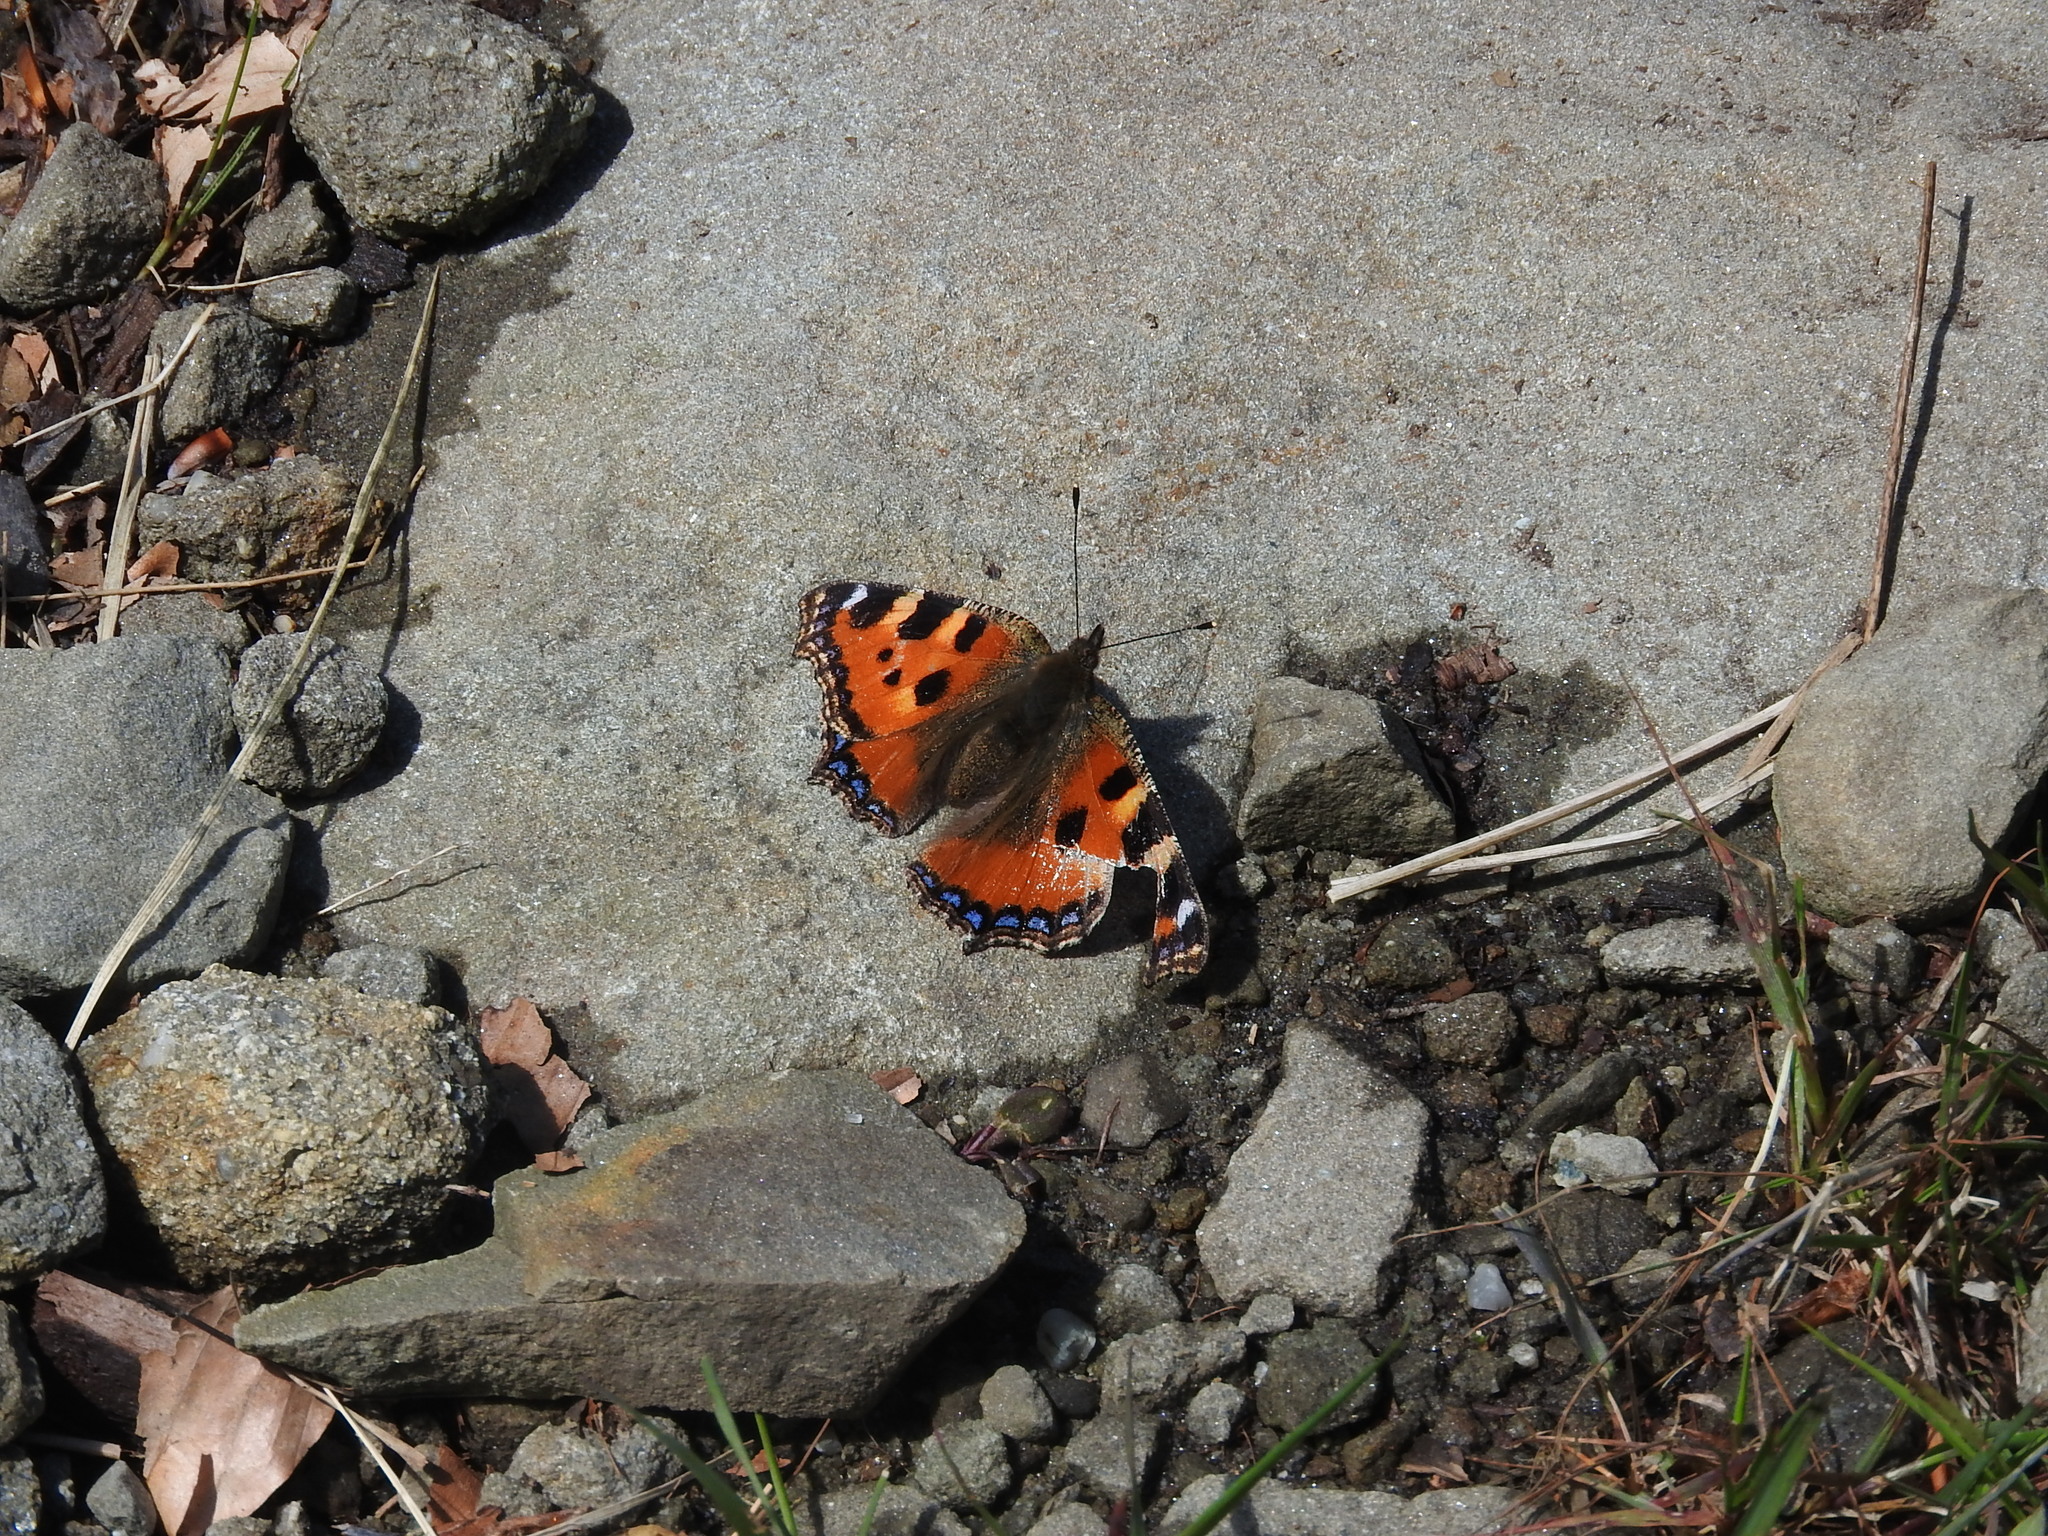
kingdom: Animalia
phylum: Arthropoda
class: Insecta
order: Lepidoptera
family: Nymphalidae
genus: Aglais
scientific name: Aglais urticae
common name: Small tortoiseshell
